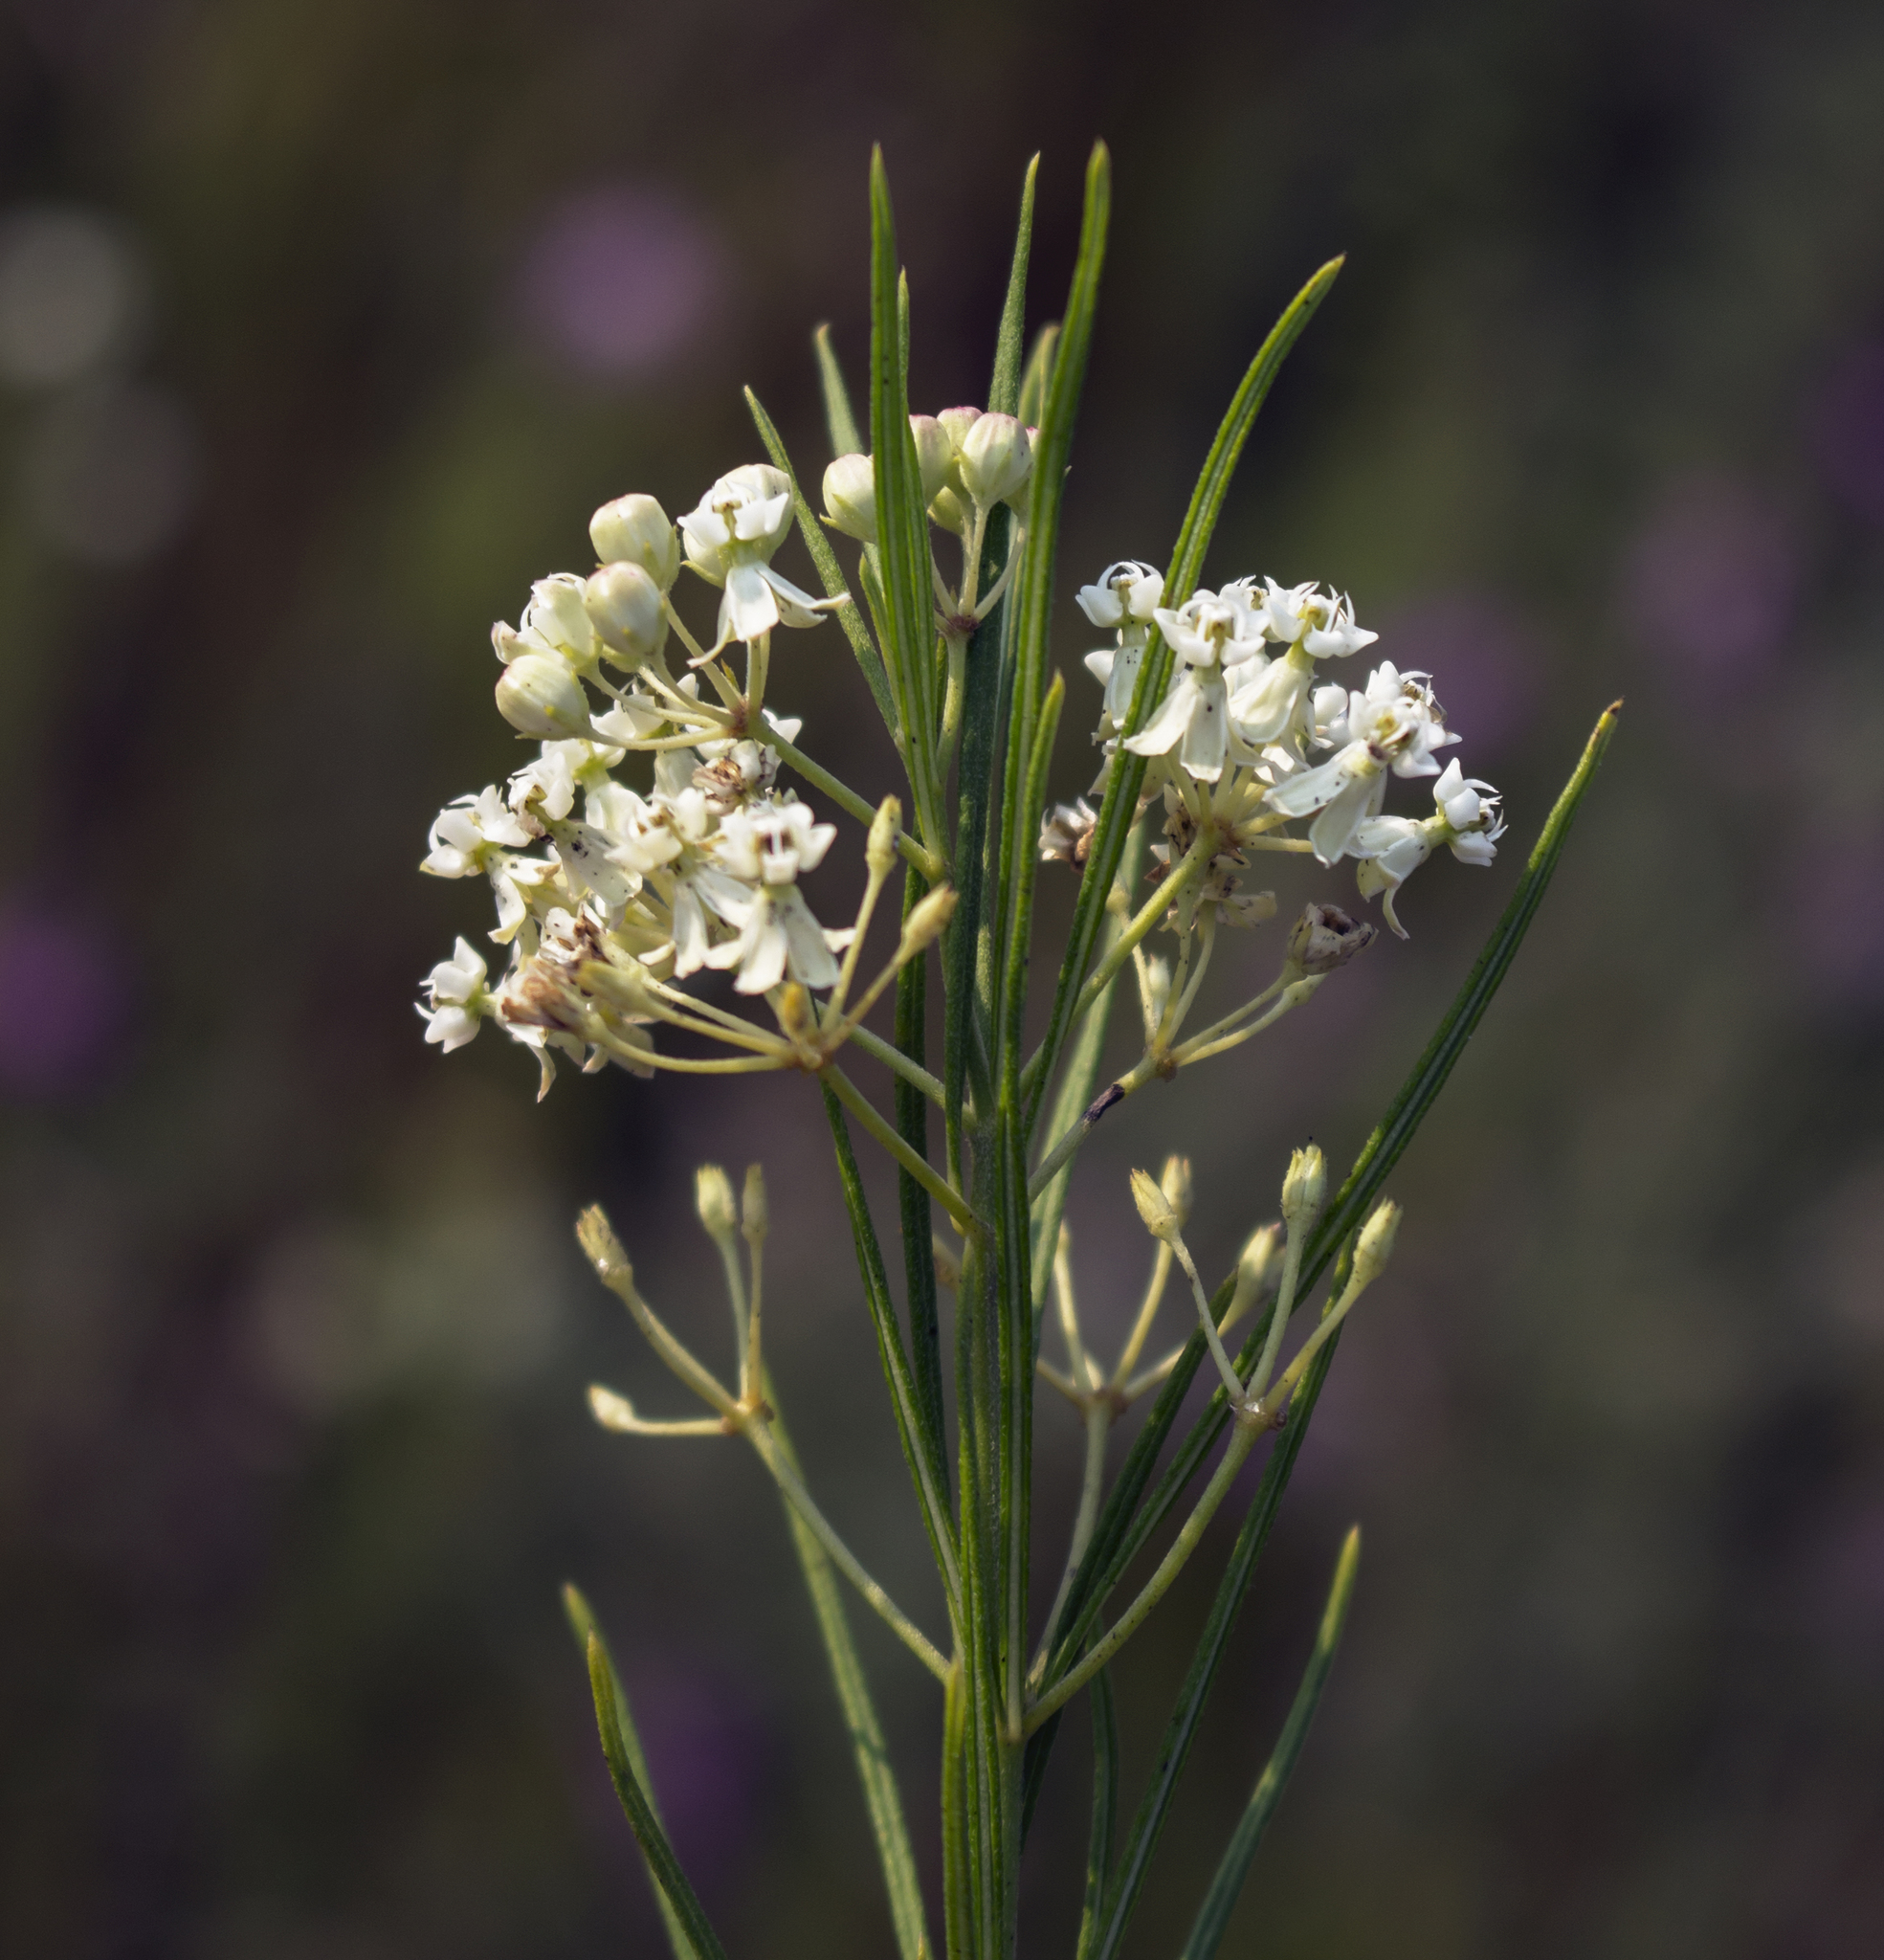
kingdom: Plantae
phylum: Tracheophyta
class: Magnoliopsida
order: Gentianales
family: Apocynaceae
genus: Asclepias
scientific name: Asclepias verticillata
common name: Eastern whorled milkweed
